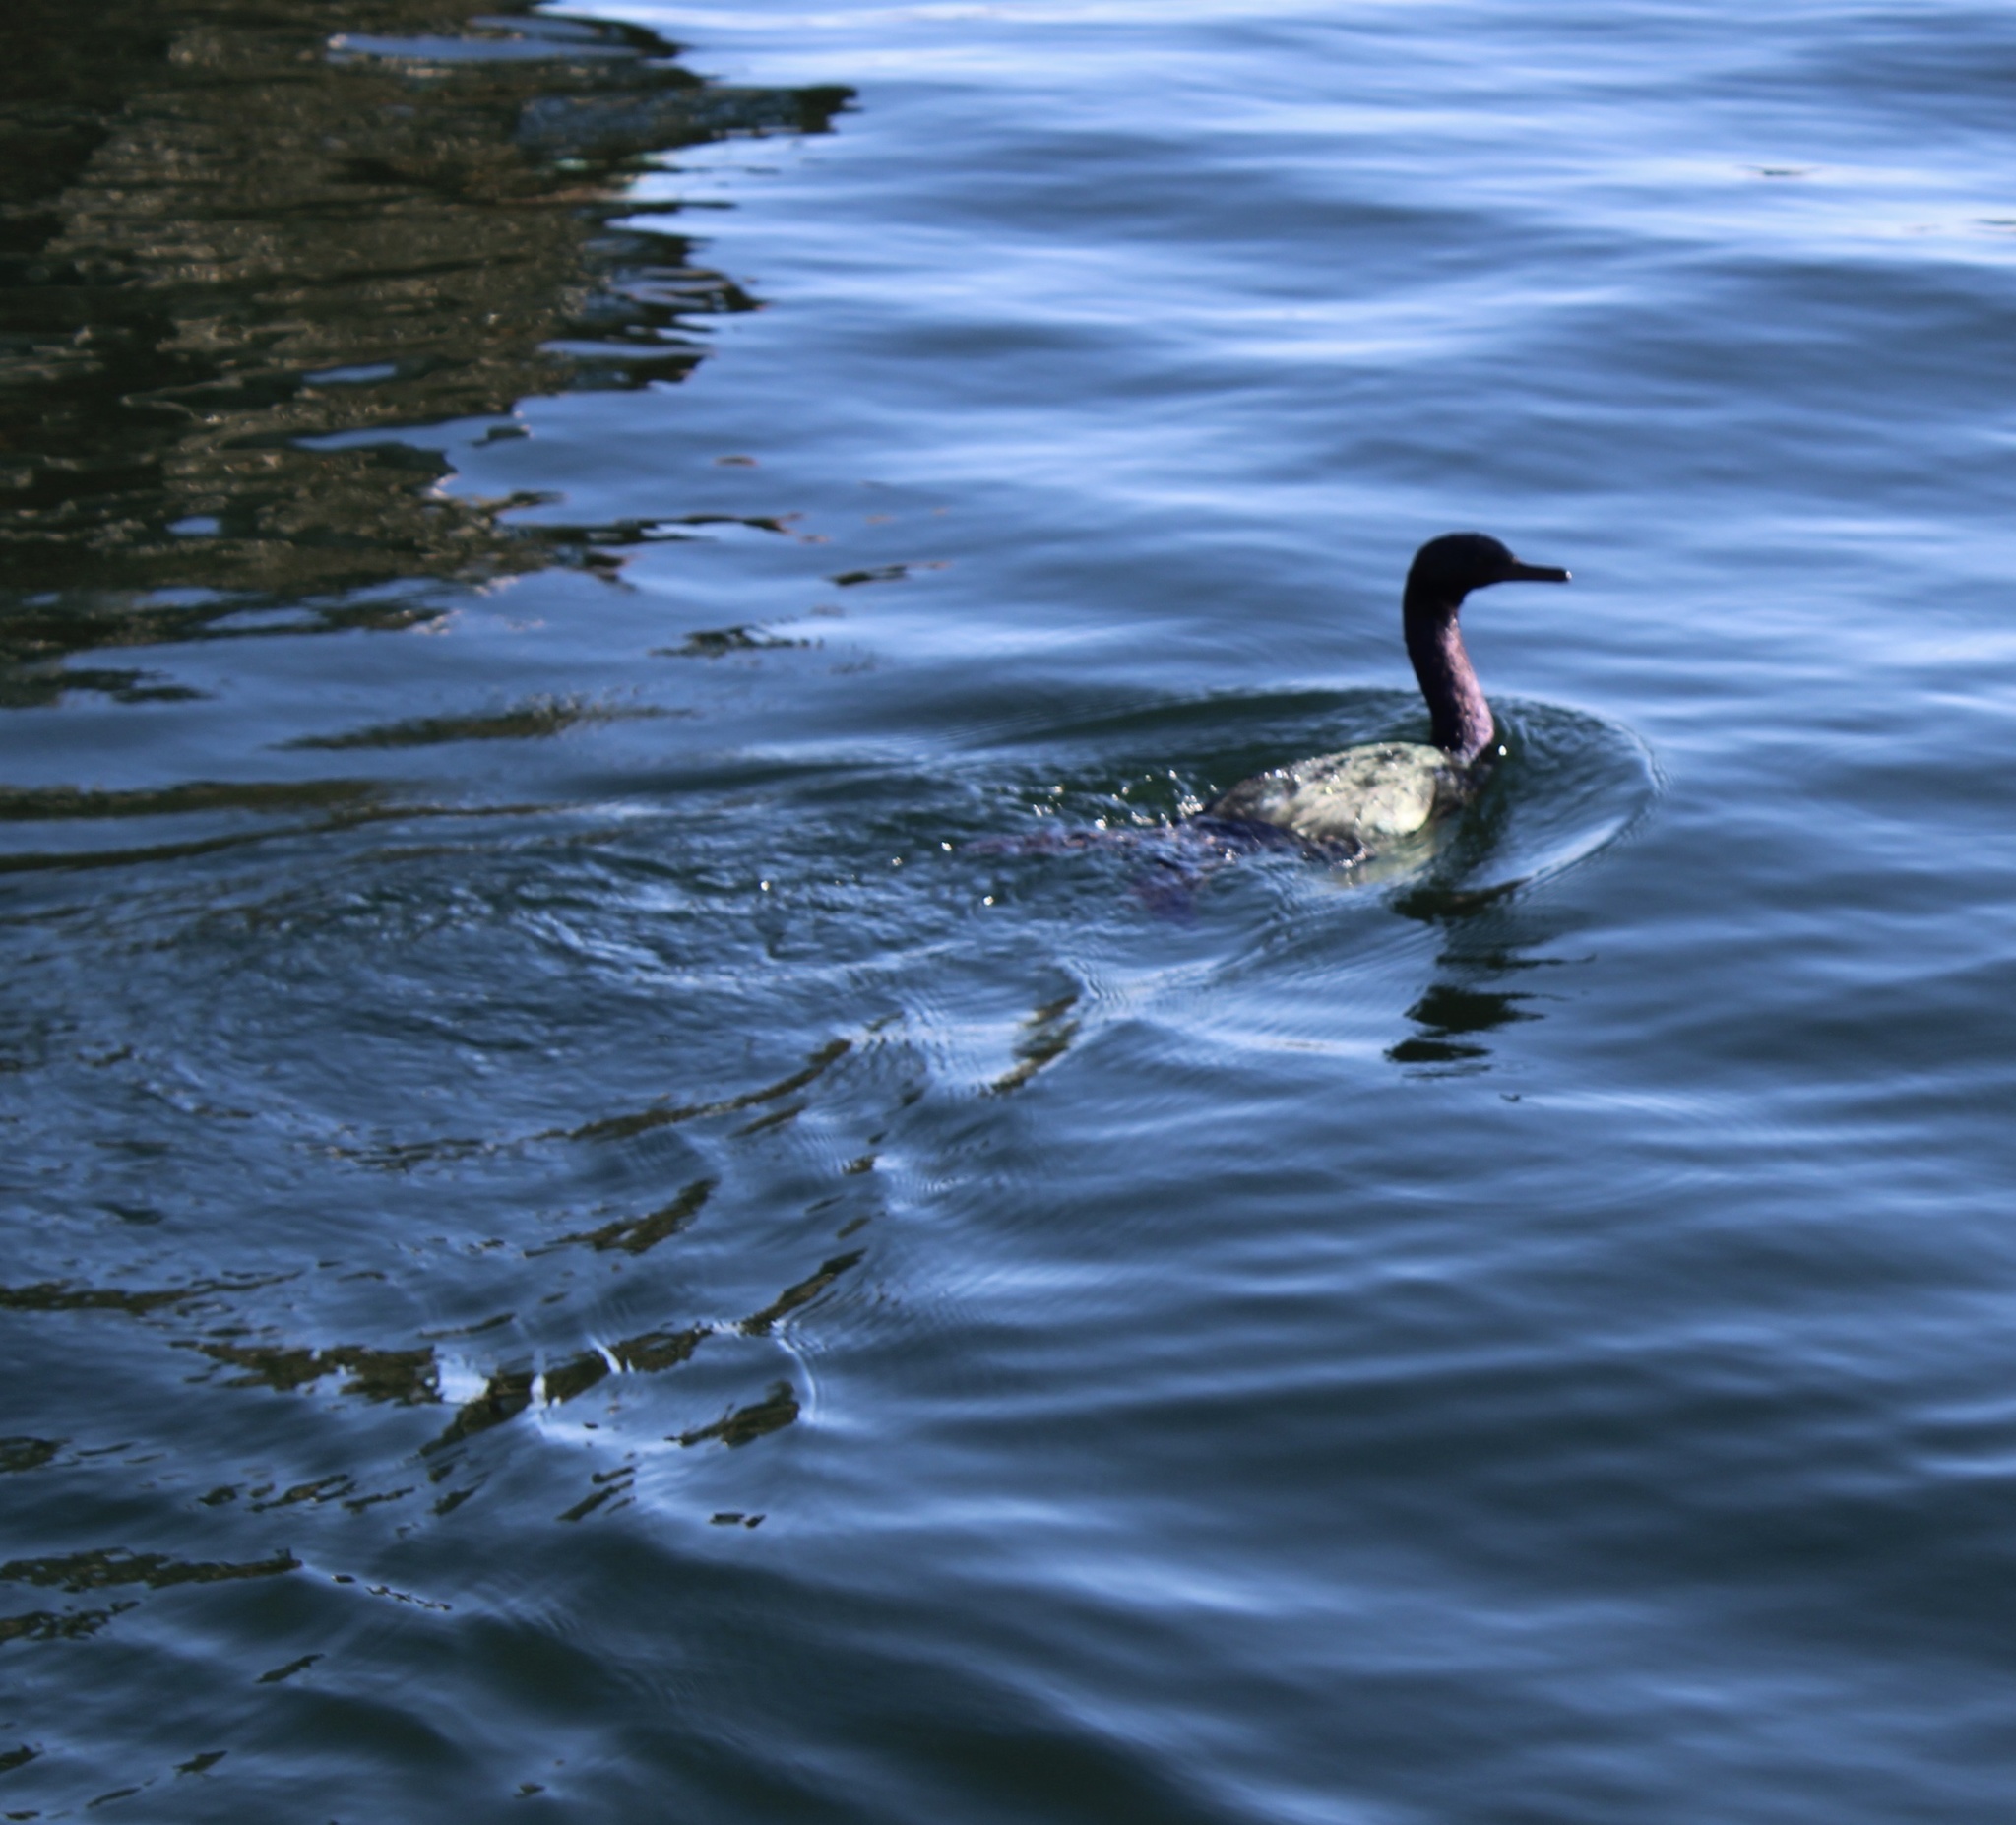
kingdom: Animalia
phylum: Chordata
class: Aves
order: Suliformes
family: Phalacrocoracidae
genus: Phalacrocorax
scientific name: Phalacrocorax pelagicus
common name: Pelagic cormorant
